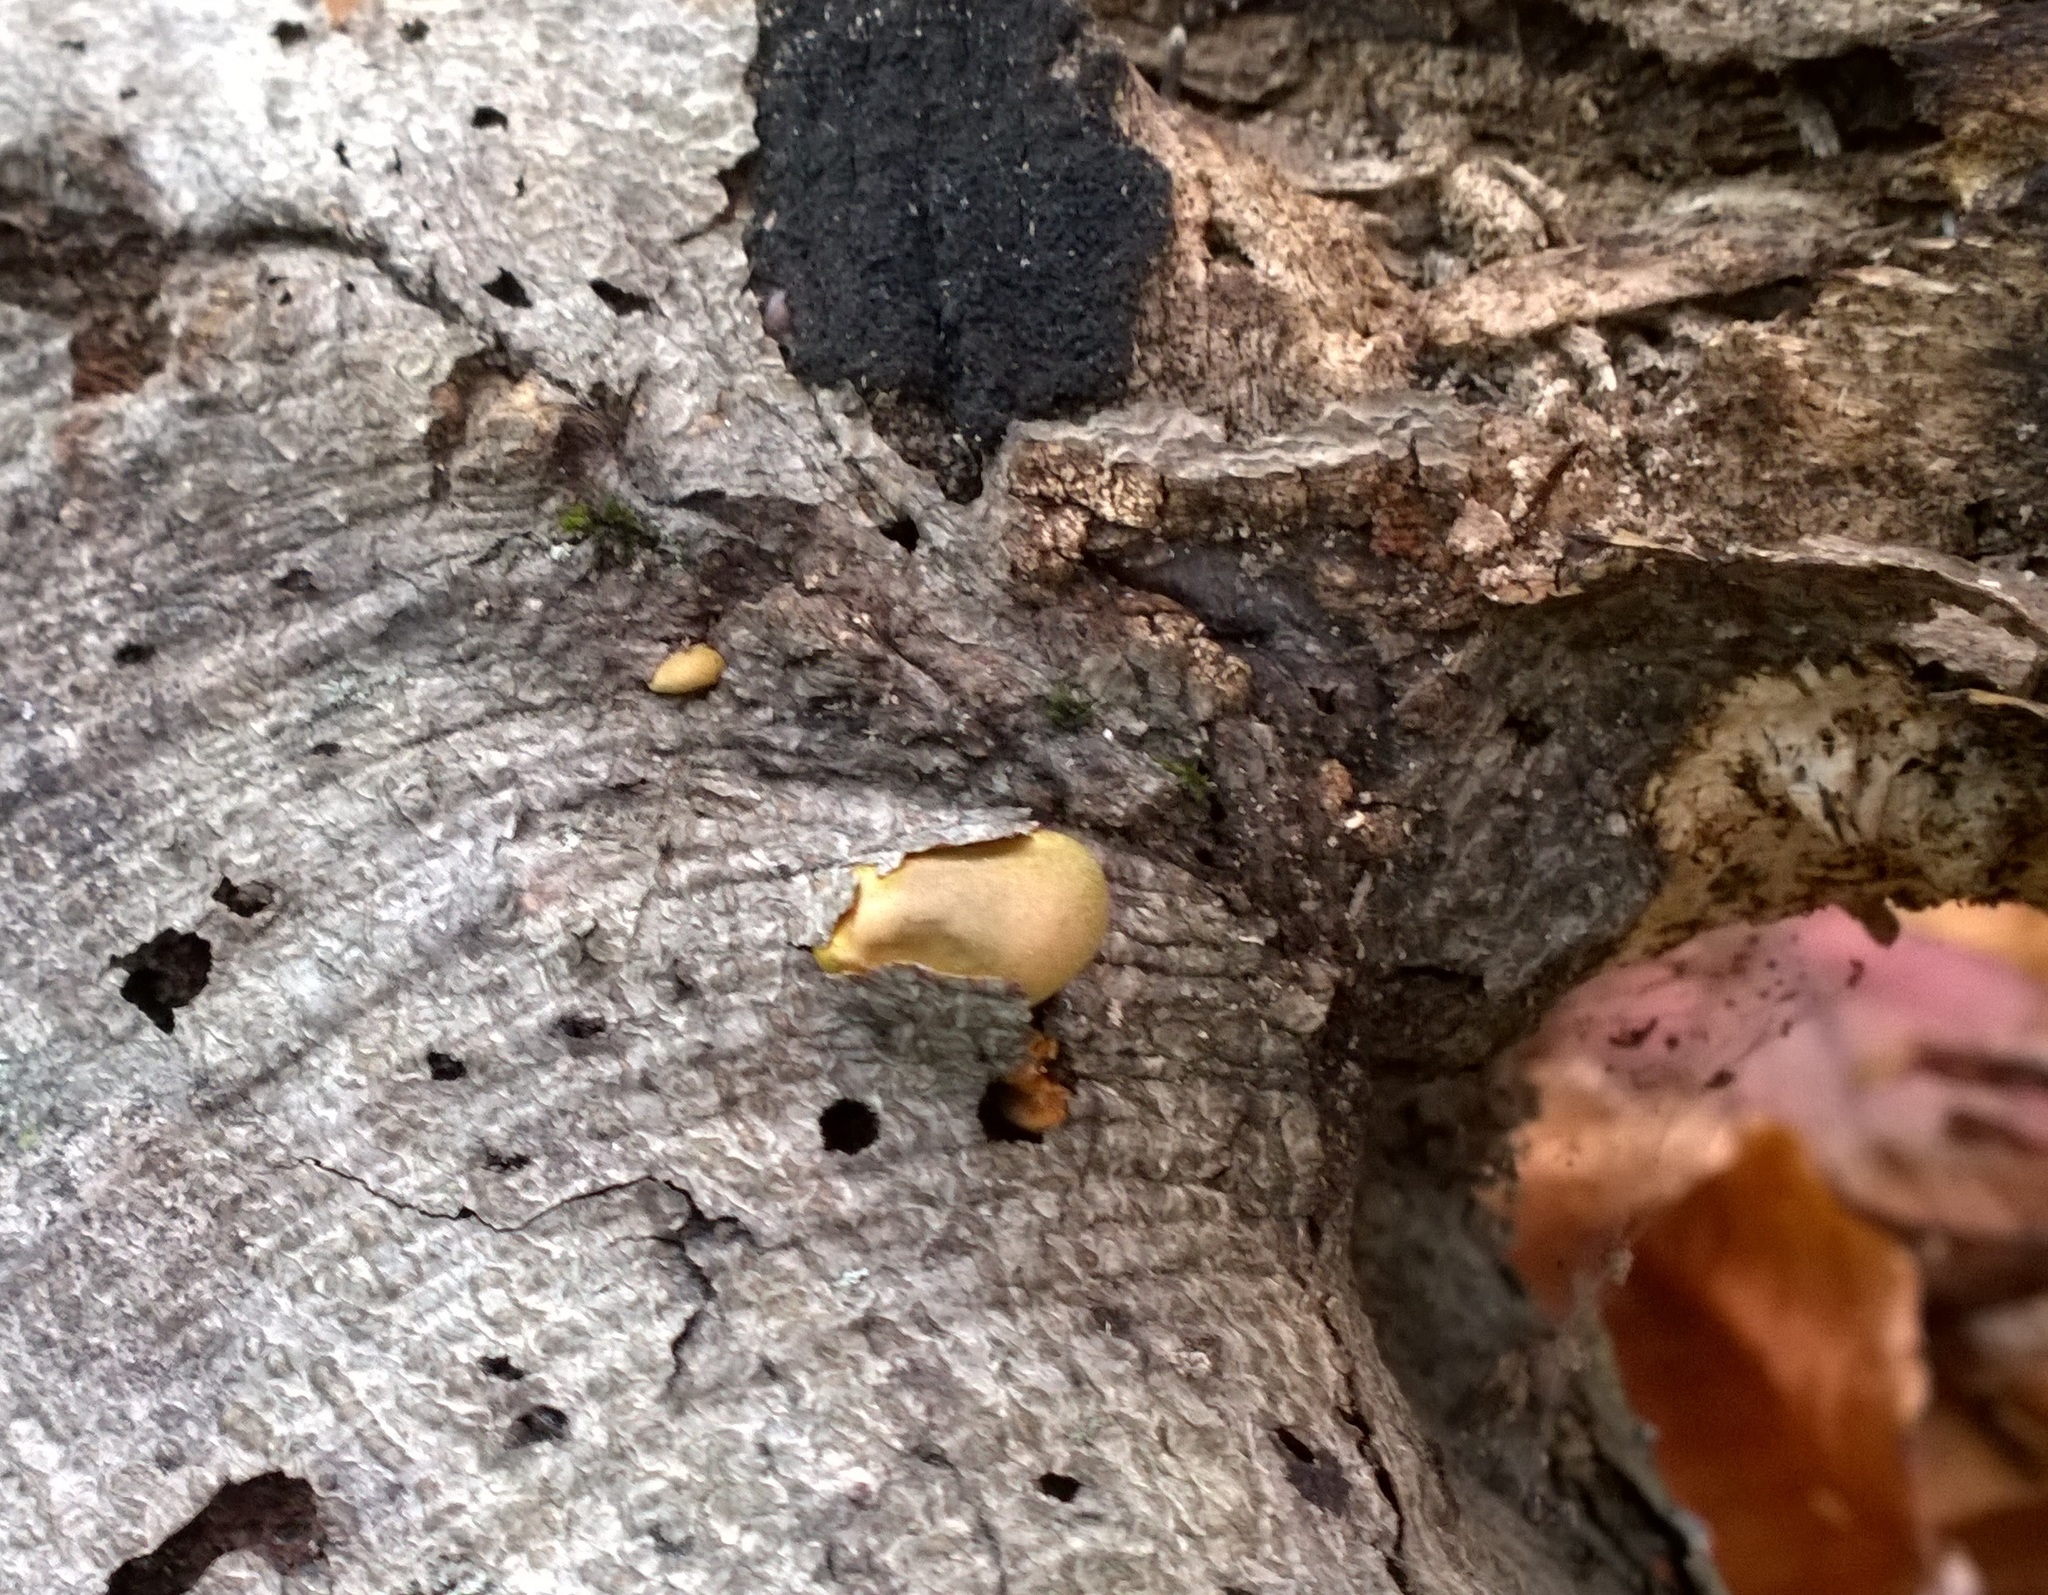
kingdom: Fungi
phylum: Basidiomycota
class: Agaricomycetes
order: Agaricales
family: Sarcomyxaceae
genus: Sarcomyxa
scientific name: Sarcomyxa serotina
